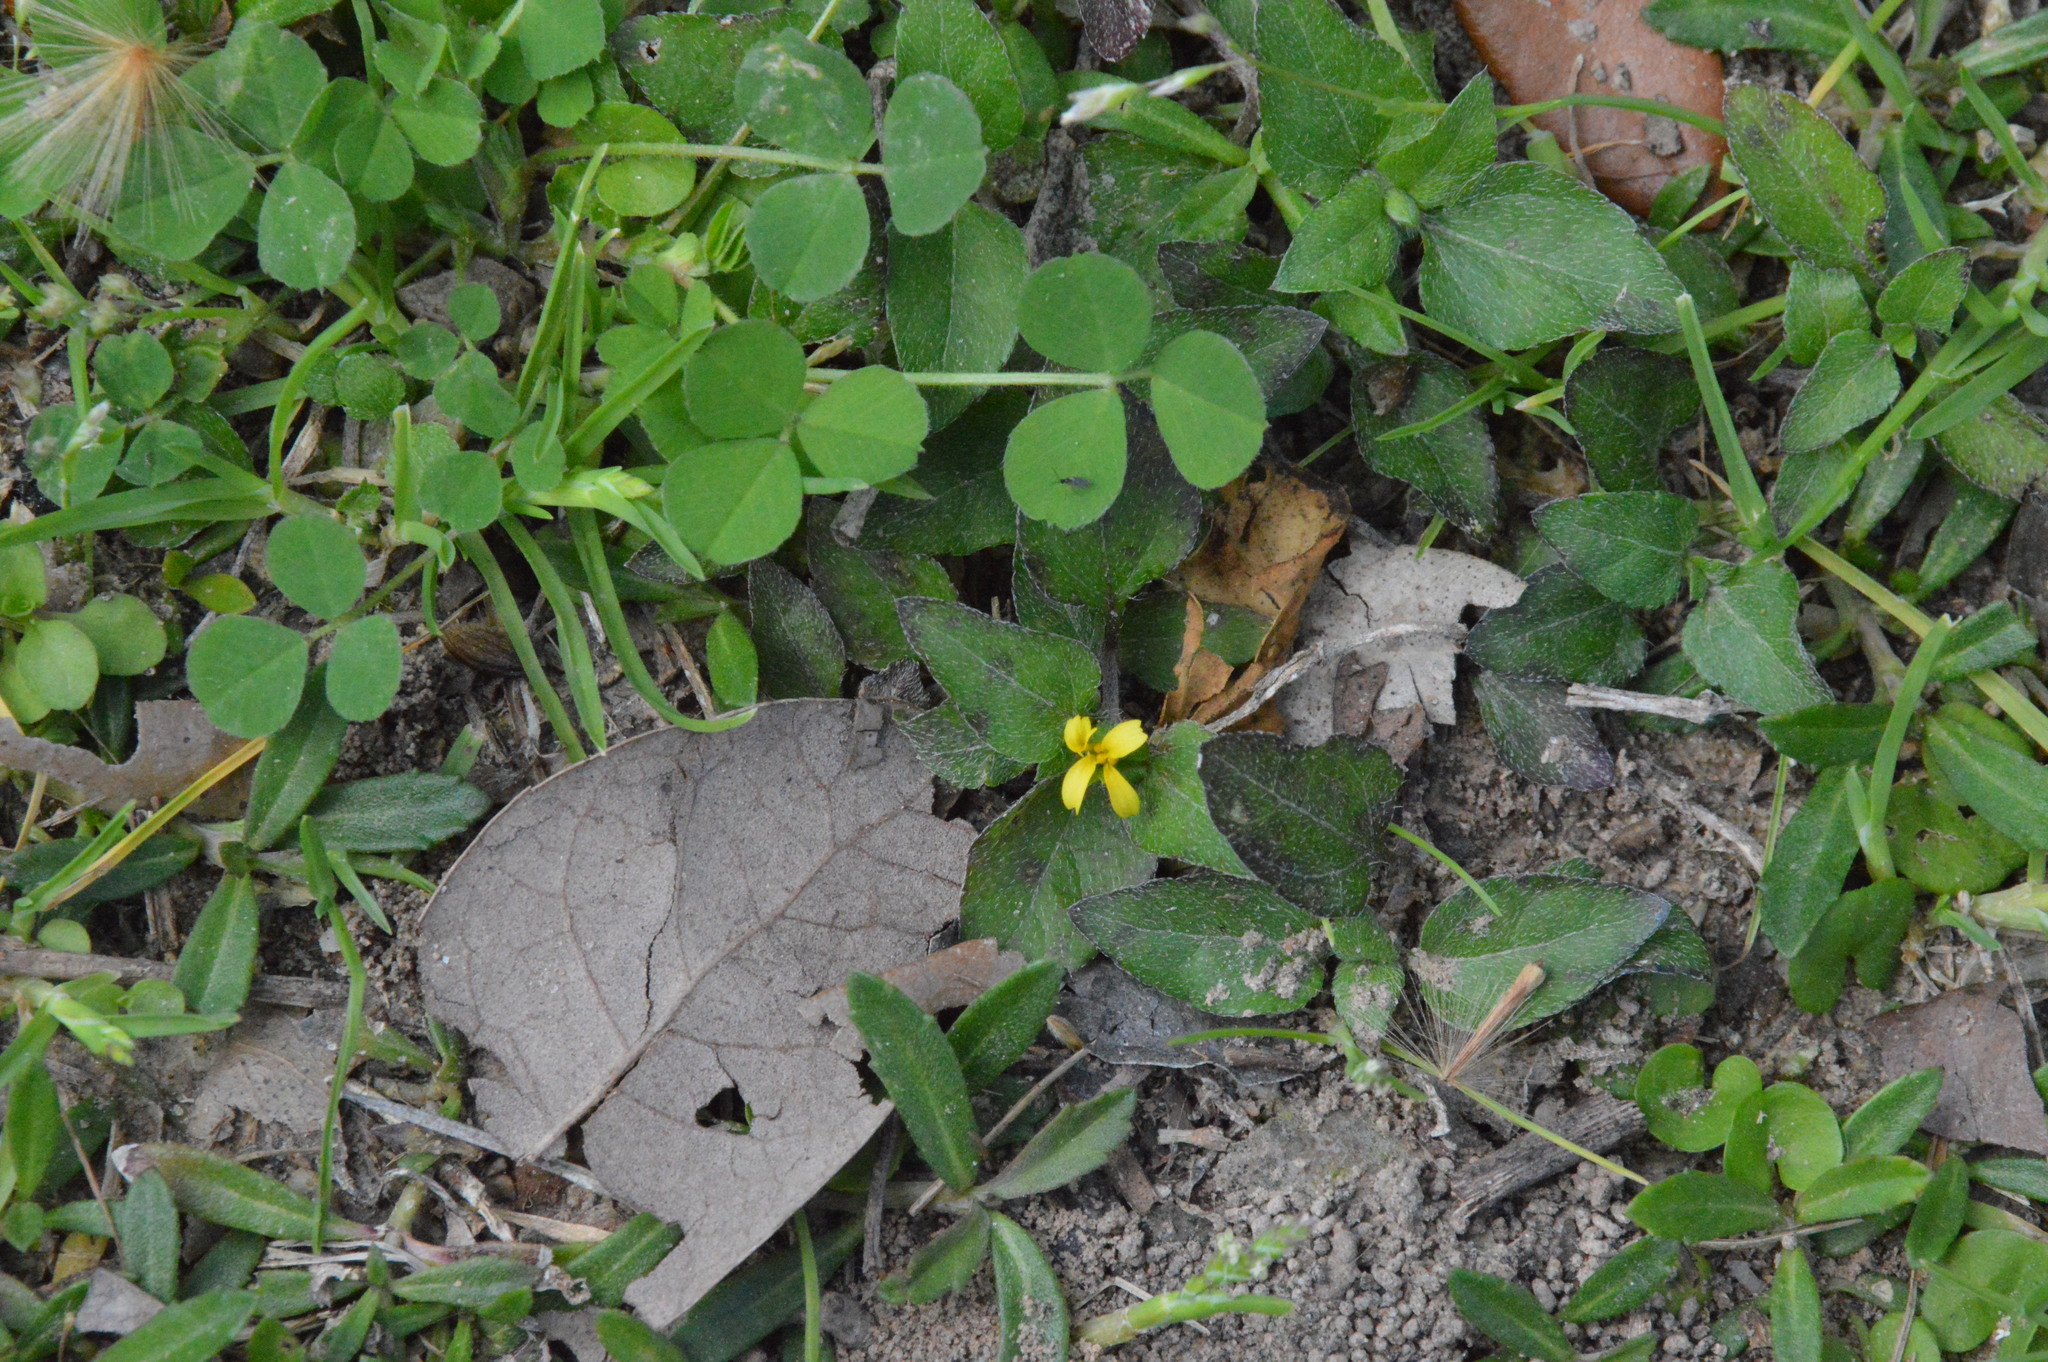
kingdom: Plantae
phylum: Tracheophyta
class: Magnoliopsida
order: Asterales
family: Asteraceae
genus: Calyptocarpus
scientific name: Calyptocarpus vialis
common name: Straggler daisy
